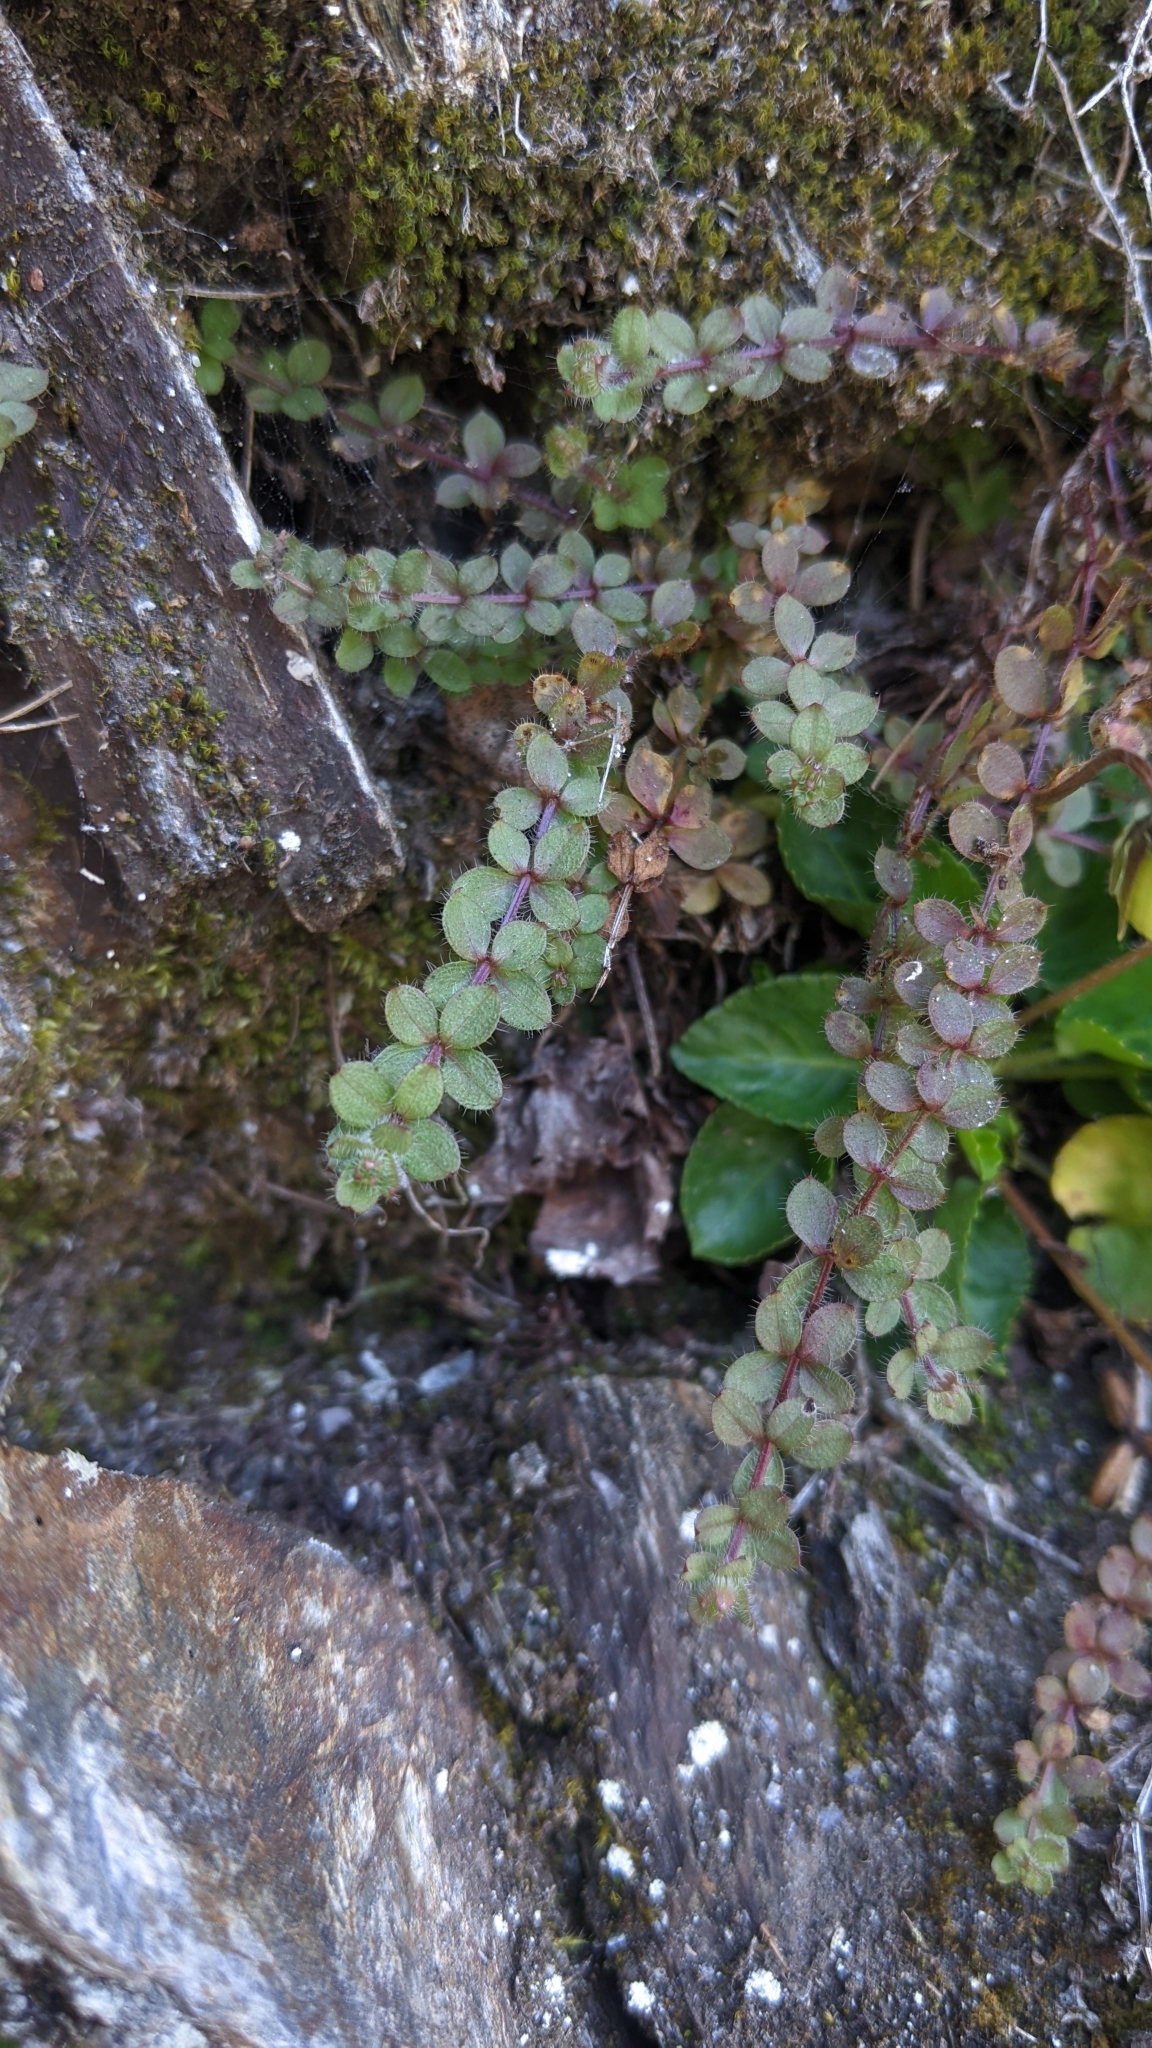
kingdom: Plantae
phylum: Tracheophyta
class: Magnoliopsida
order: Gentianales
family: Rubiaceae
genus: Galium
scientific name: Galium formosense
